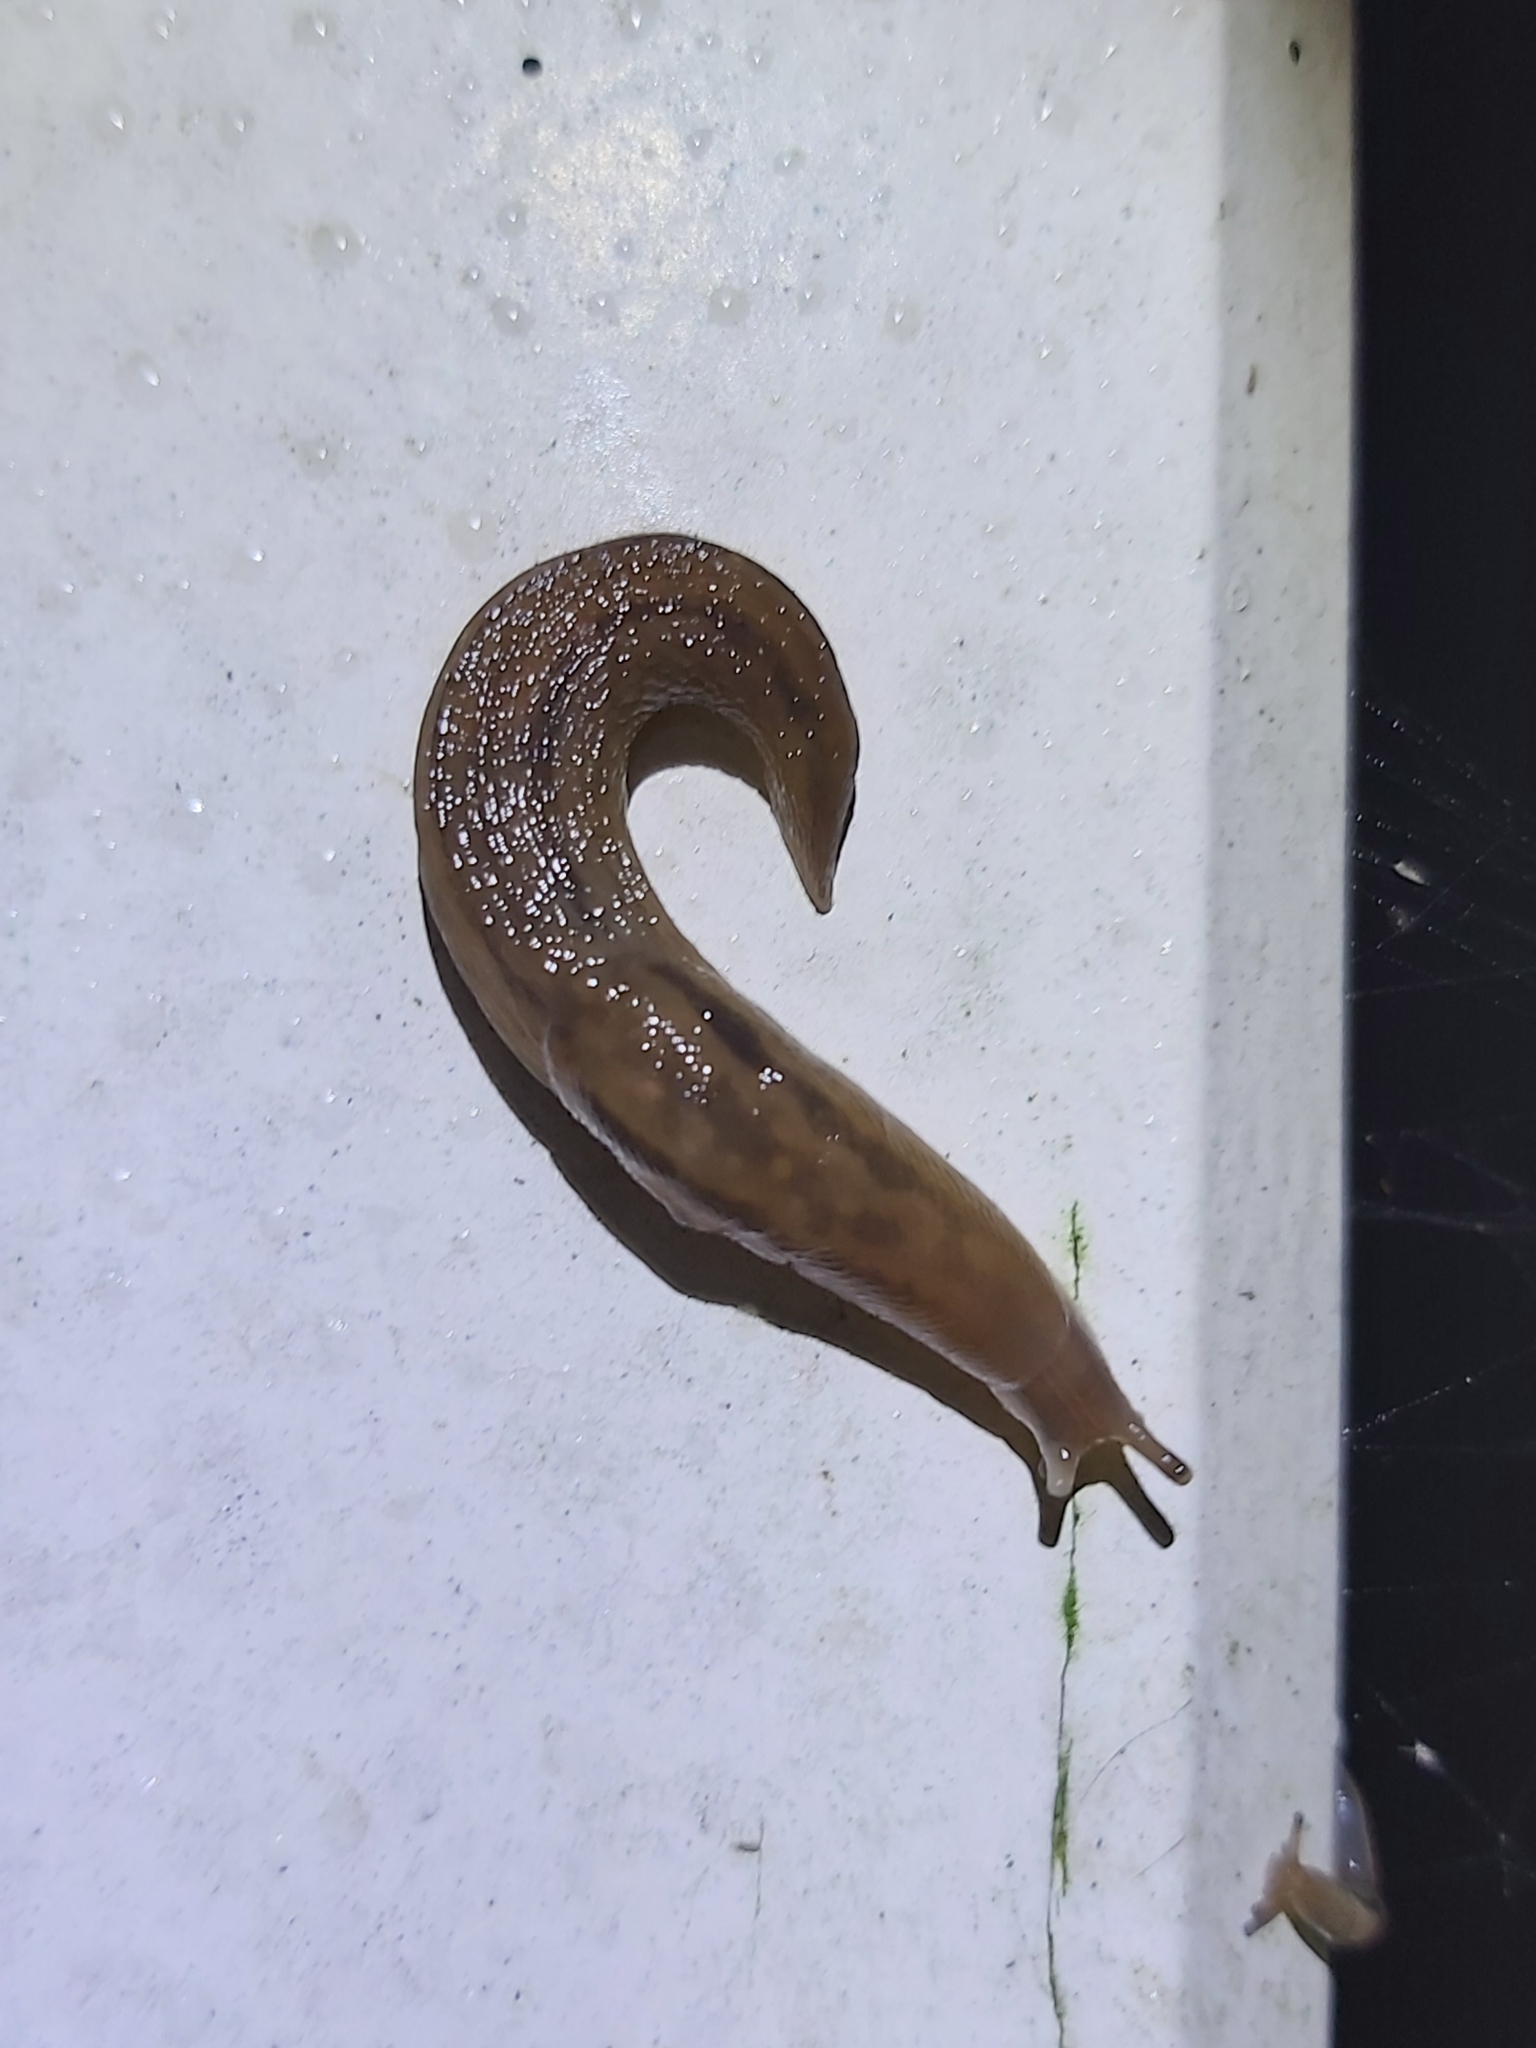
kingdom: Animalia
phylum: Mollusca
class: Gastropoda
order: Stylommatophora
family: Limacidae
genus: Ambigolimax
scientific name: Ambigolimax
